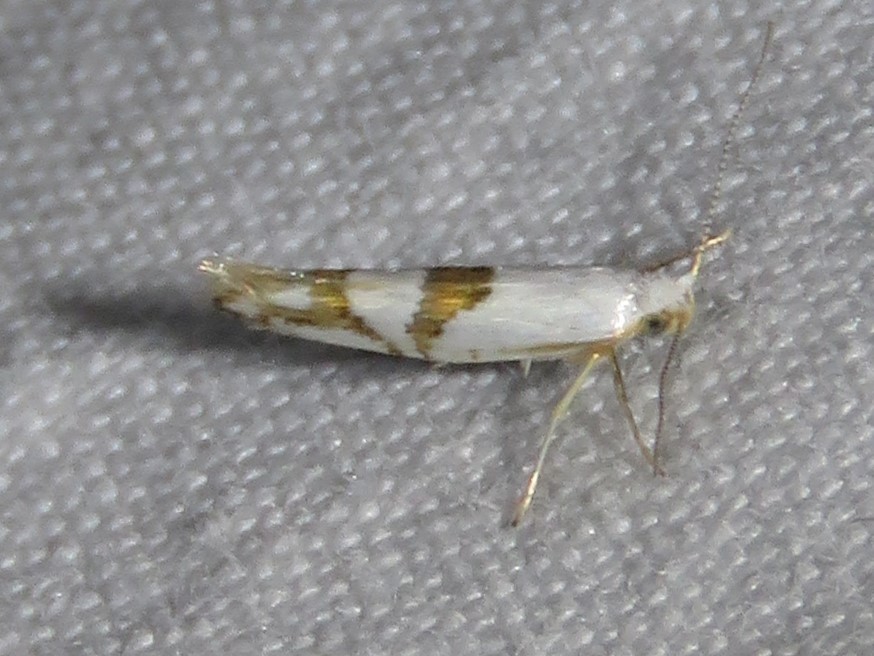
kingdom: Animalia
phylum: Arthropoda
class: Insecta
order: Lepidoptera
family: Argyresthiidae
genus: Argyresthia
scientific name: Argyresthia oreasella
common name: Cherry shoot borer moth
